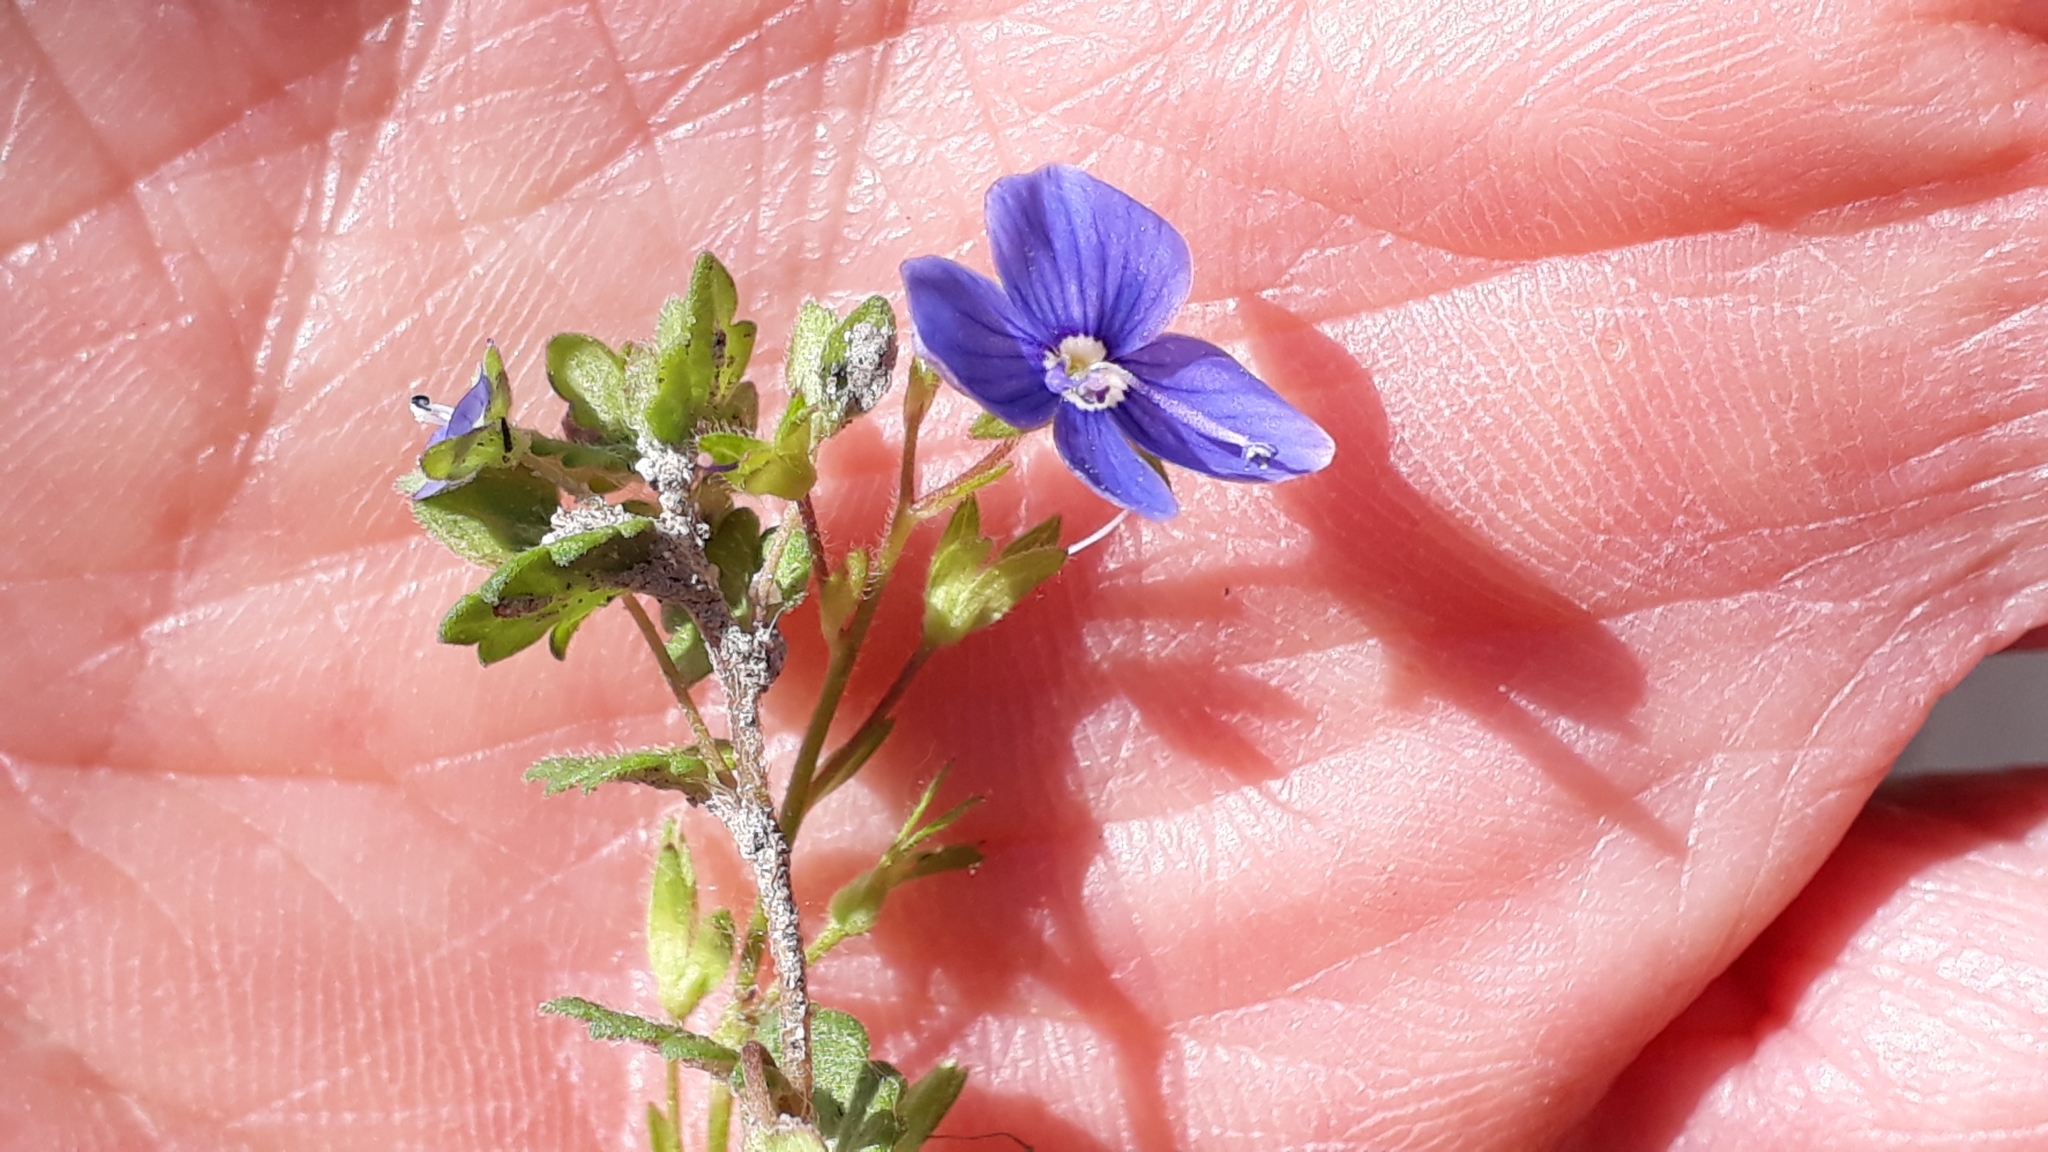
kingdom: Plantae
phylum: Tracheophyta
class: Magnoliopsida
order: Lamiales
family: Plantaginaceae
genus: Veronica
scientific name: Veronica polita
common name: Grey field-speedwell
